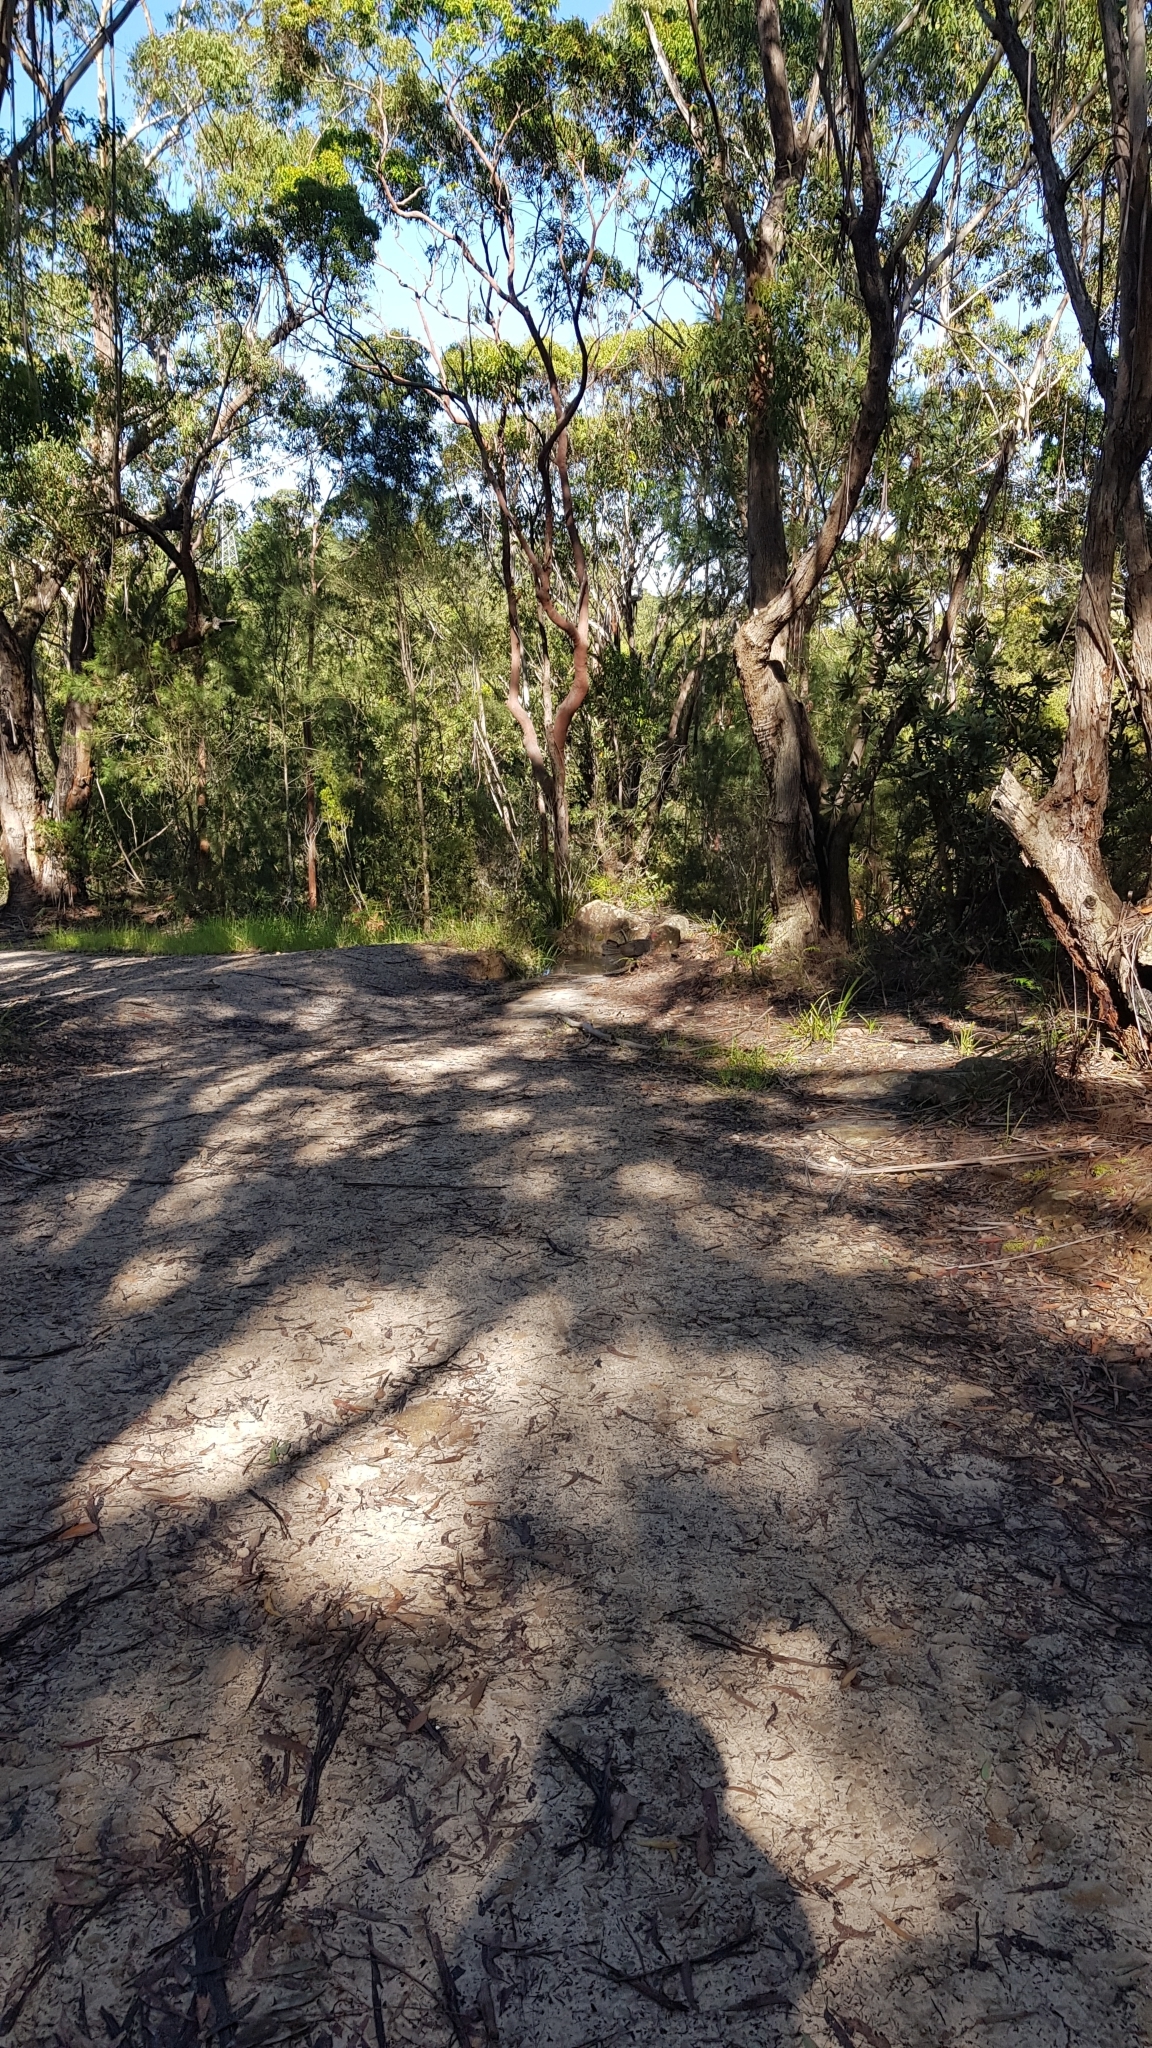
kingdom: Animalia
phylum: Chordata
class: Aves
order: Galliformes
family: Megapodiidae
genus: Alectura
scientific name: Alectura lathami
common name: Australian brushturkey
